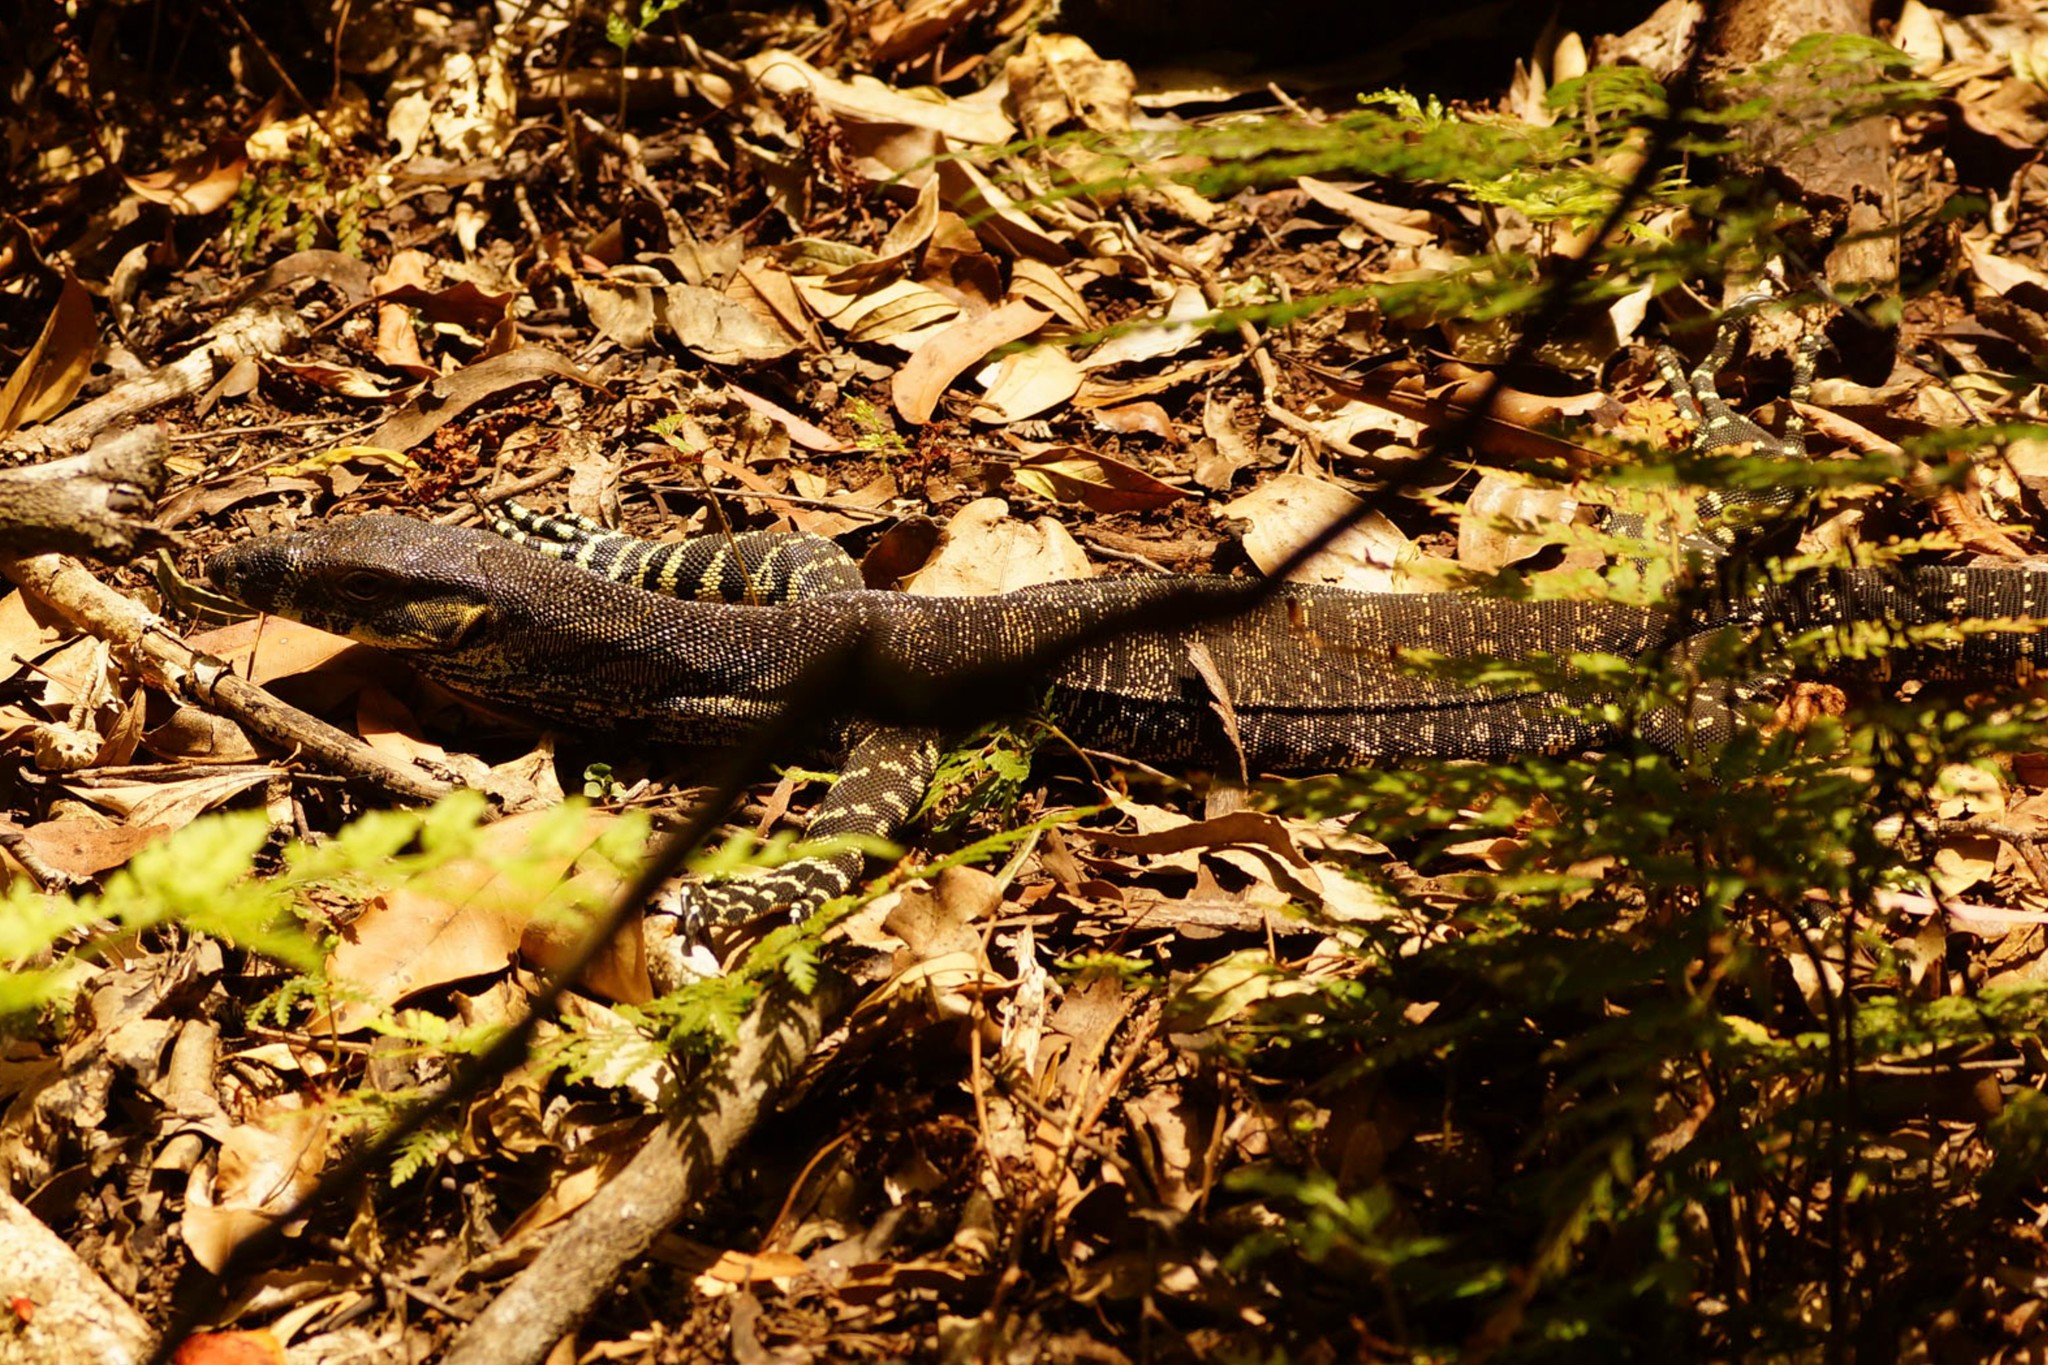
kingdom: Animalia
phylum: Chordata
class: Squamata
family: Varanidae
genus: Varanus
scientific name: Varanus varius
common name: Lace monitor
